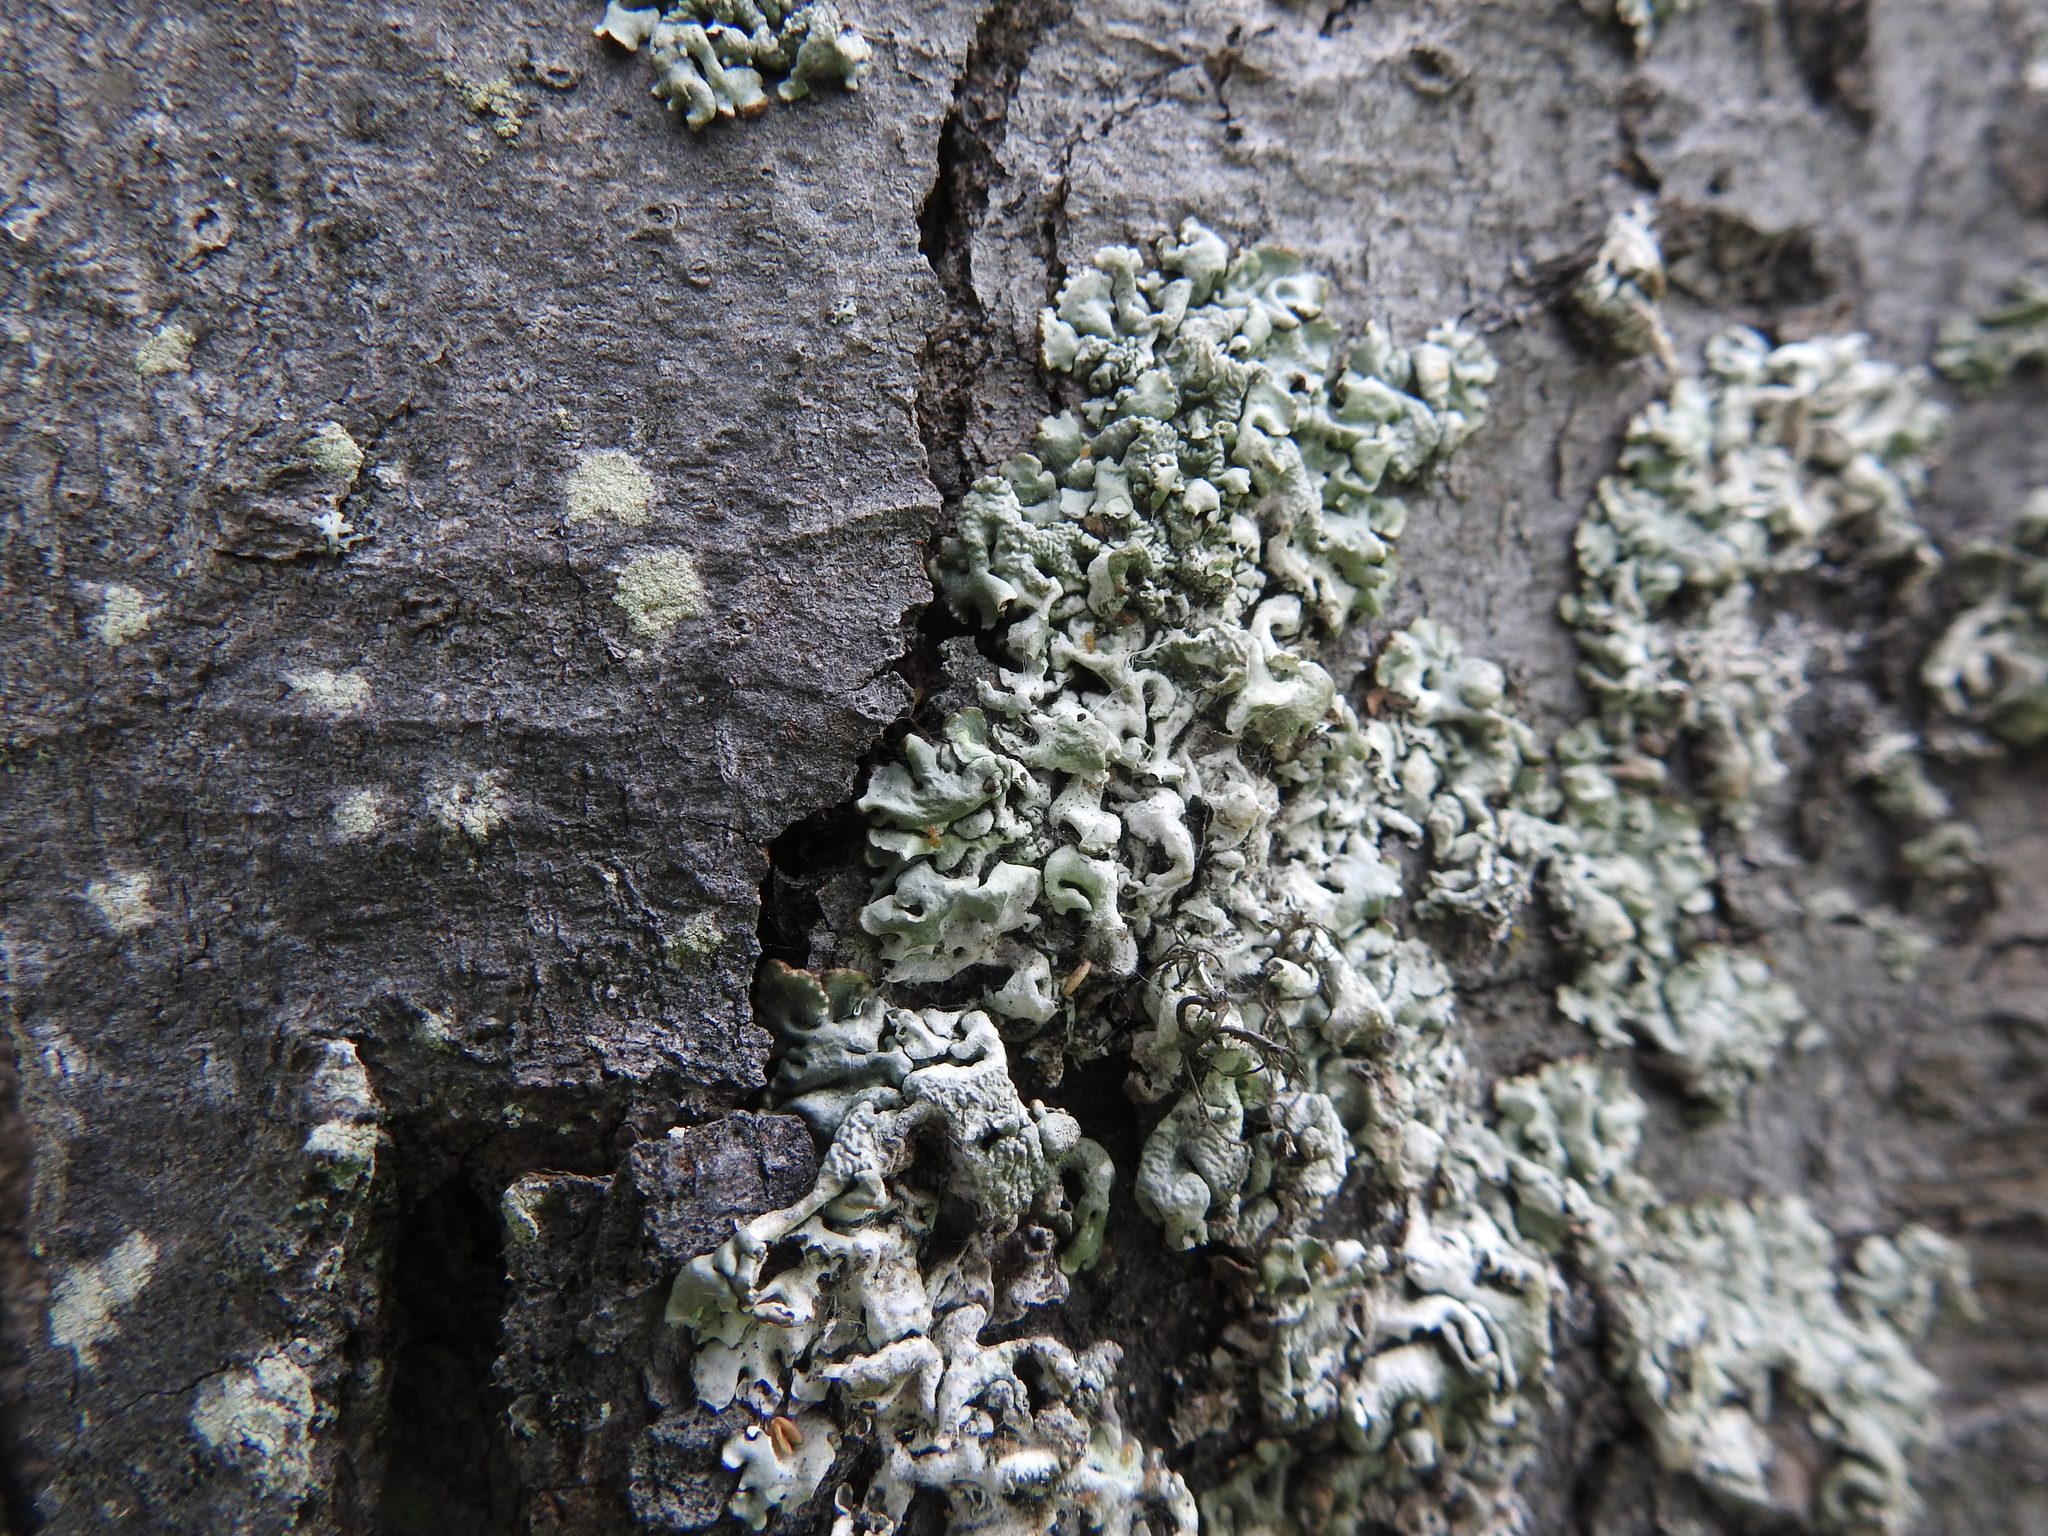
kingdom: Fungi
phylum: Ascomycota
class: Lecanoromycetes
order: Lecanorales
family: Parmeliaceae
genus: Hypogymnia
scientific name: Hypogymnia physodes
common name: Dark crottle
